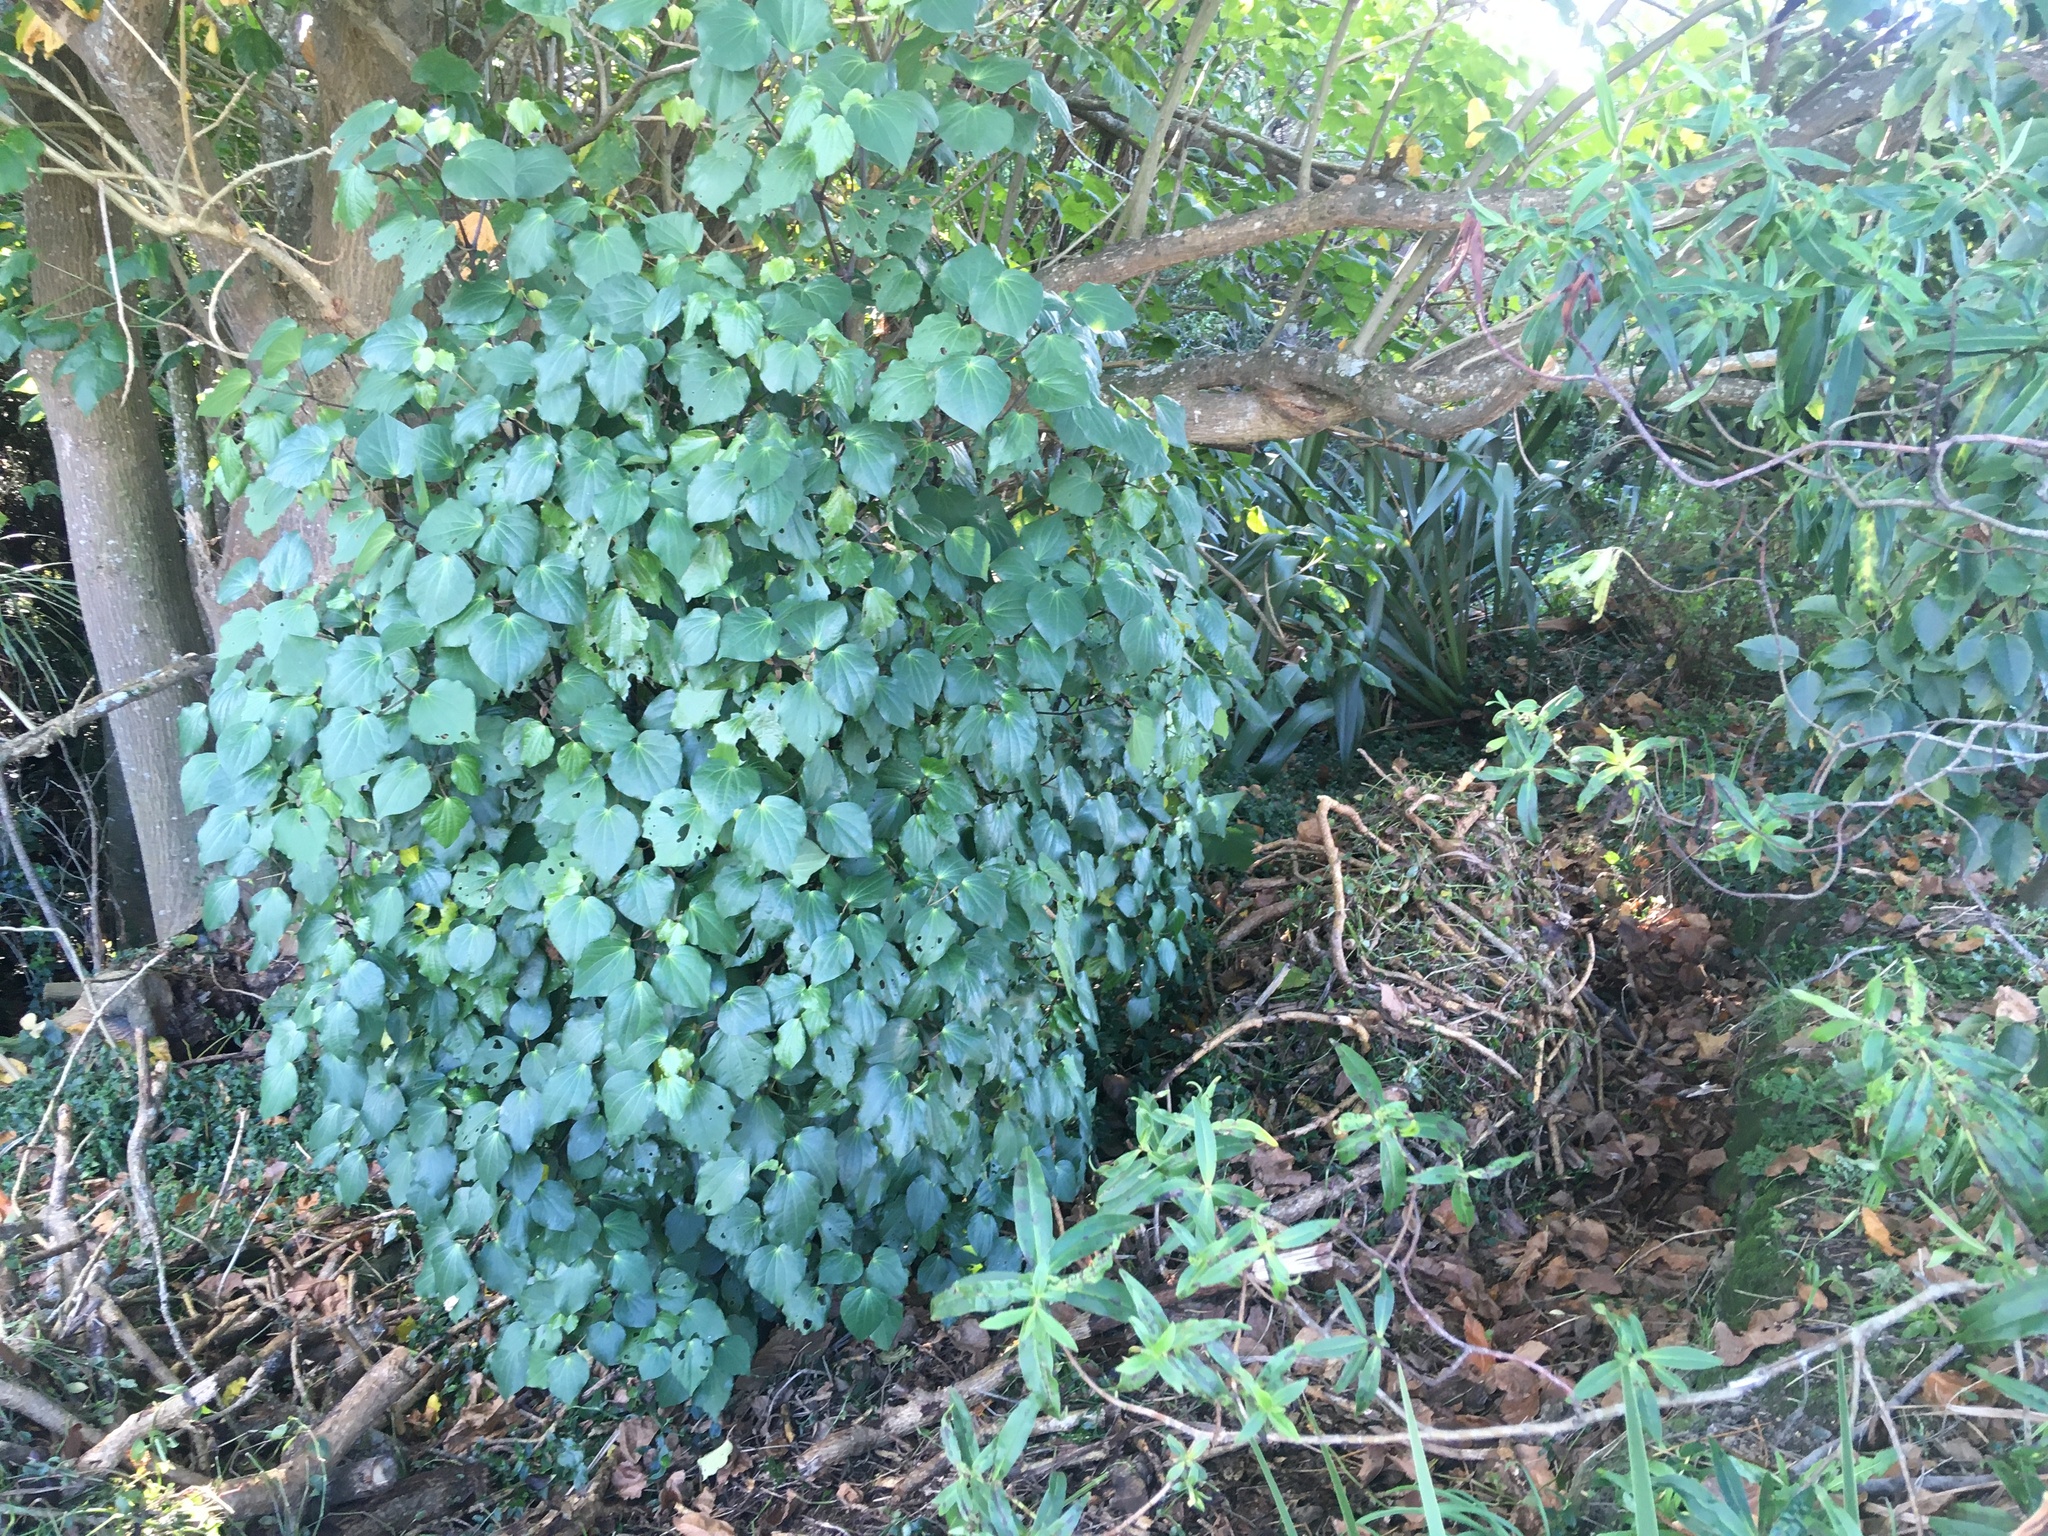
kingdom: Plantae
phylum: Tracheophyta
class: Magnoliopsida
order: Piperales
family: Piperaceae
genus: Macropiper
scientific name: Macropiper excelsum
